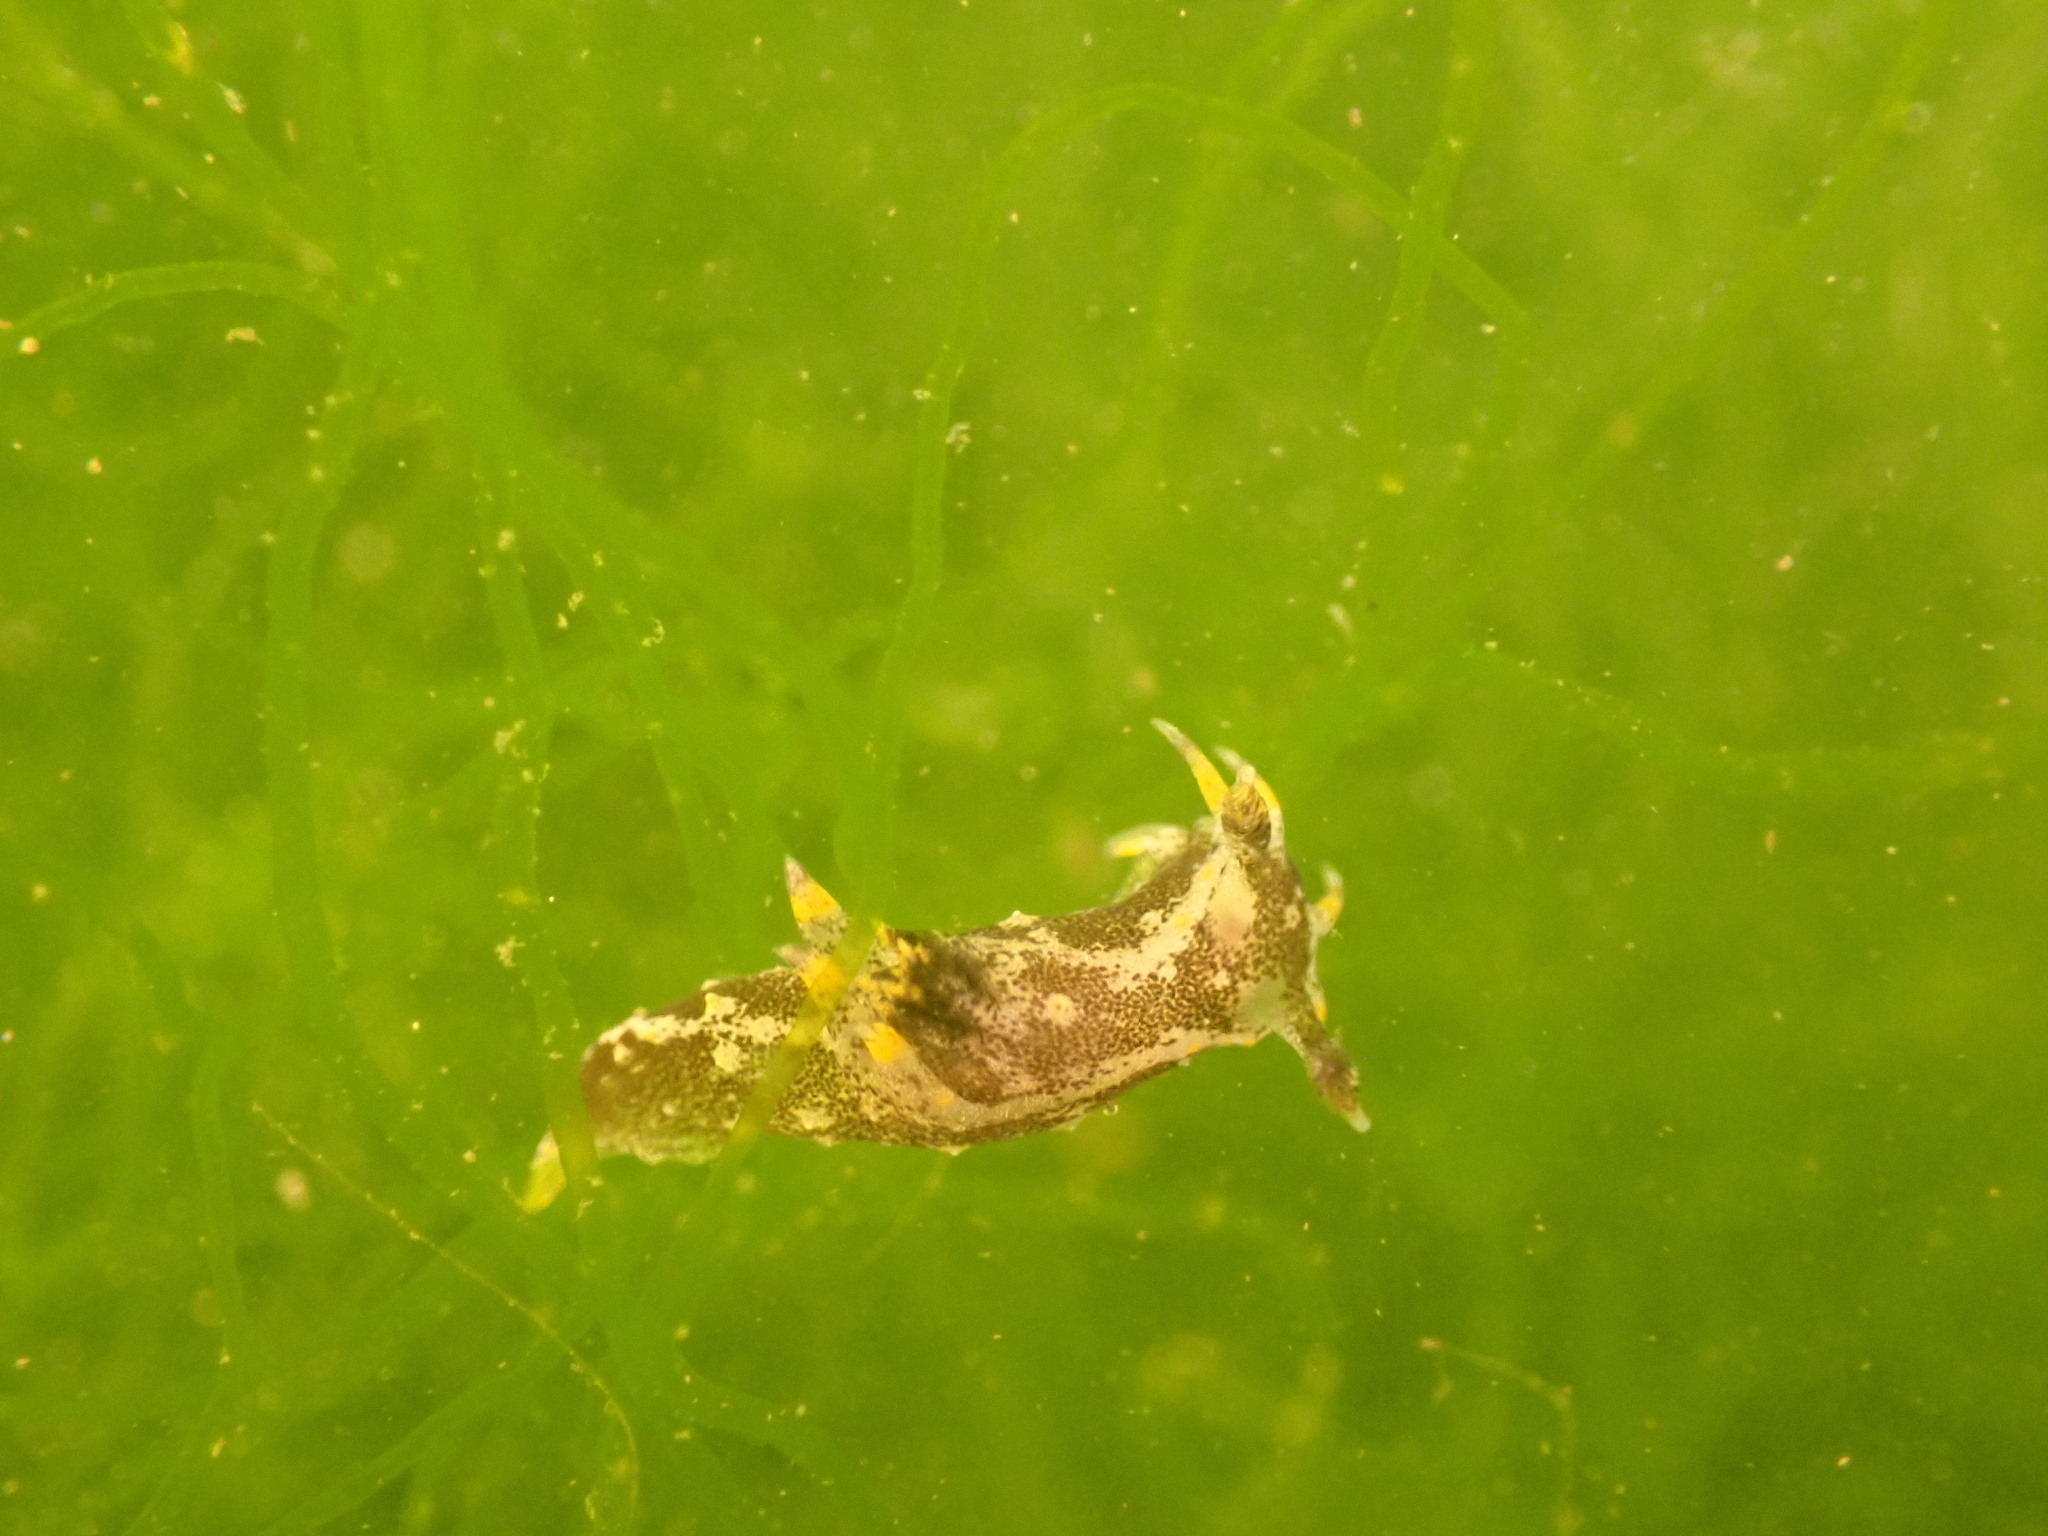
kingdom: Animalia
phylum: Mollusca
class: Gastropoda
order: Nudibranchia
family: Polyceridae
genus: Polycera
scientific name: Polycera hedgpethi
